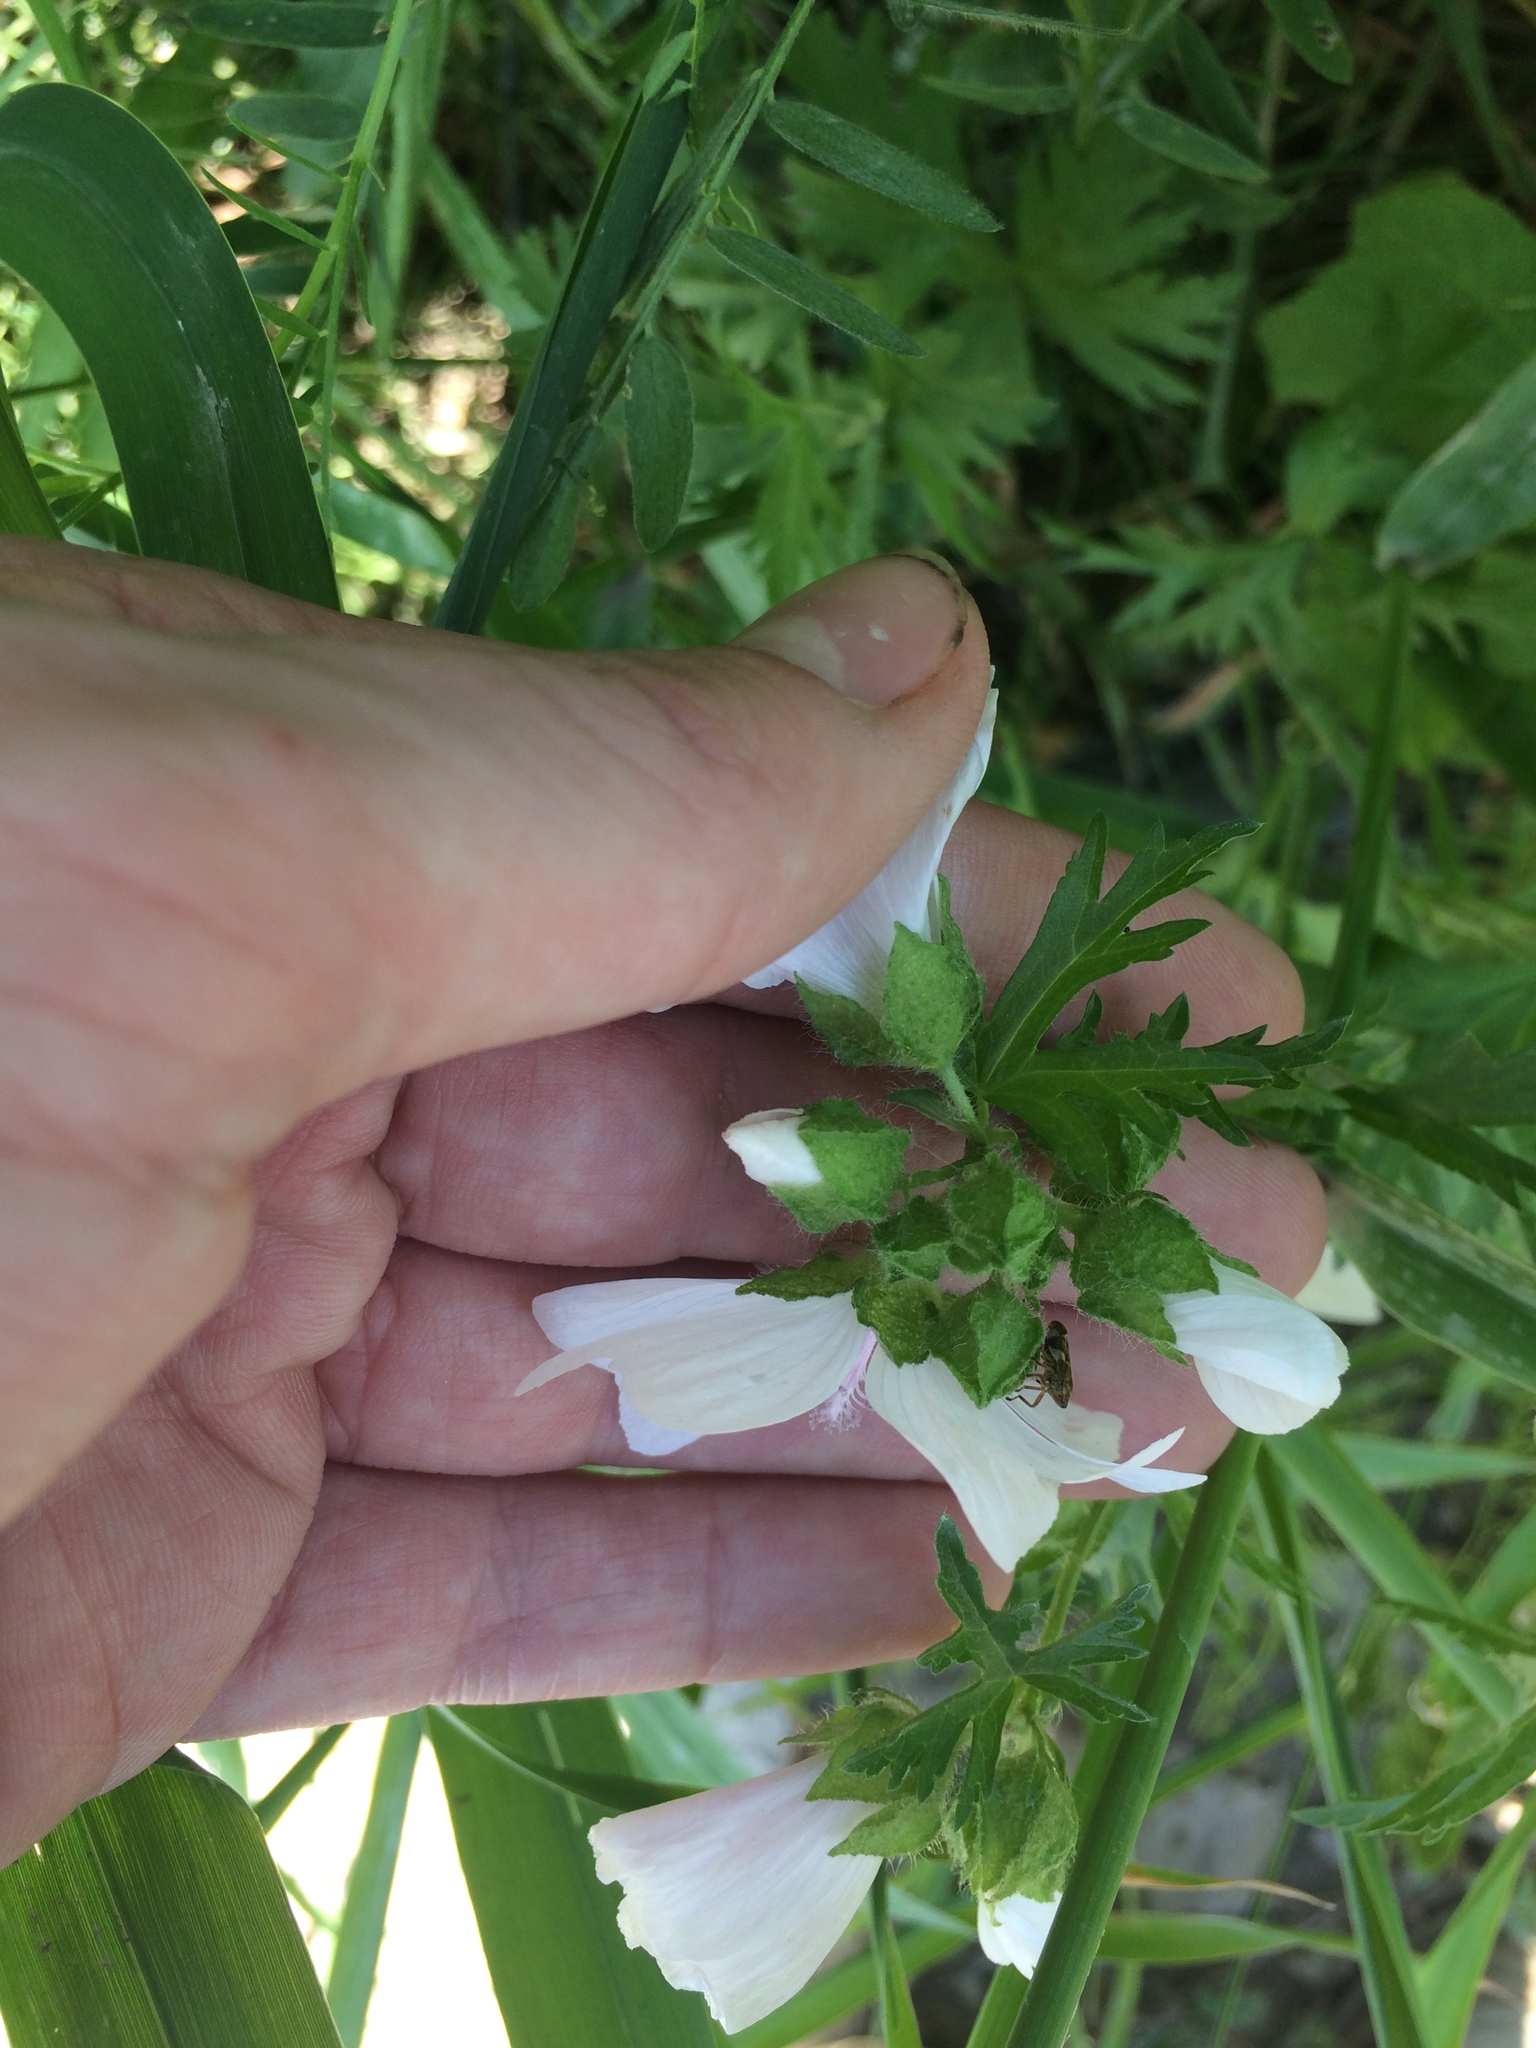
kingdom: Plantae
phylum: Tracheophyta
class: Magnoliopsida
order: Malvales
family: Malvaceae
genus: Malva
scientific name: Malva moschata
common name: Musk mallow
